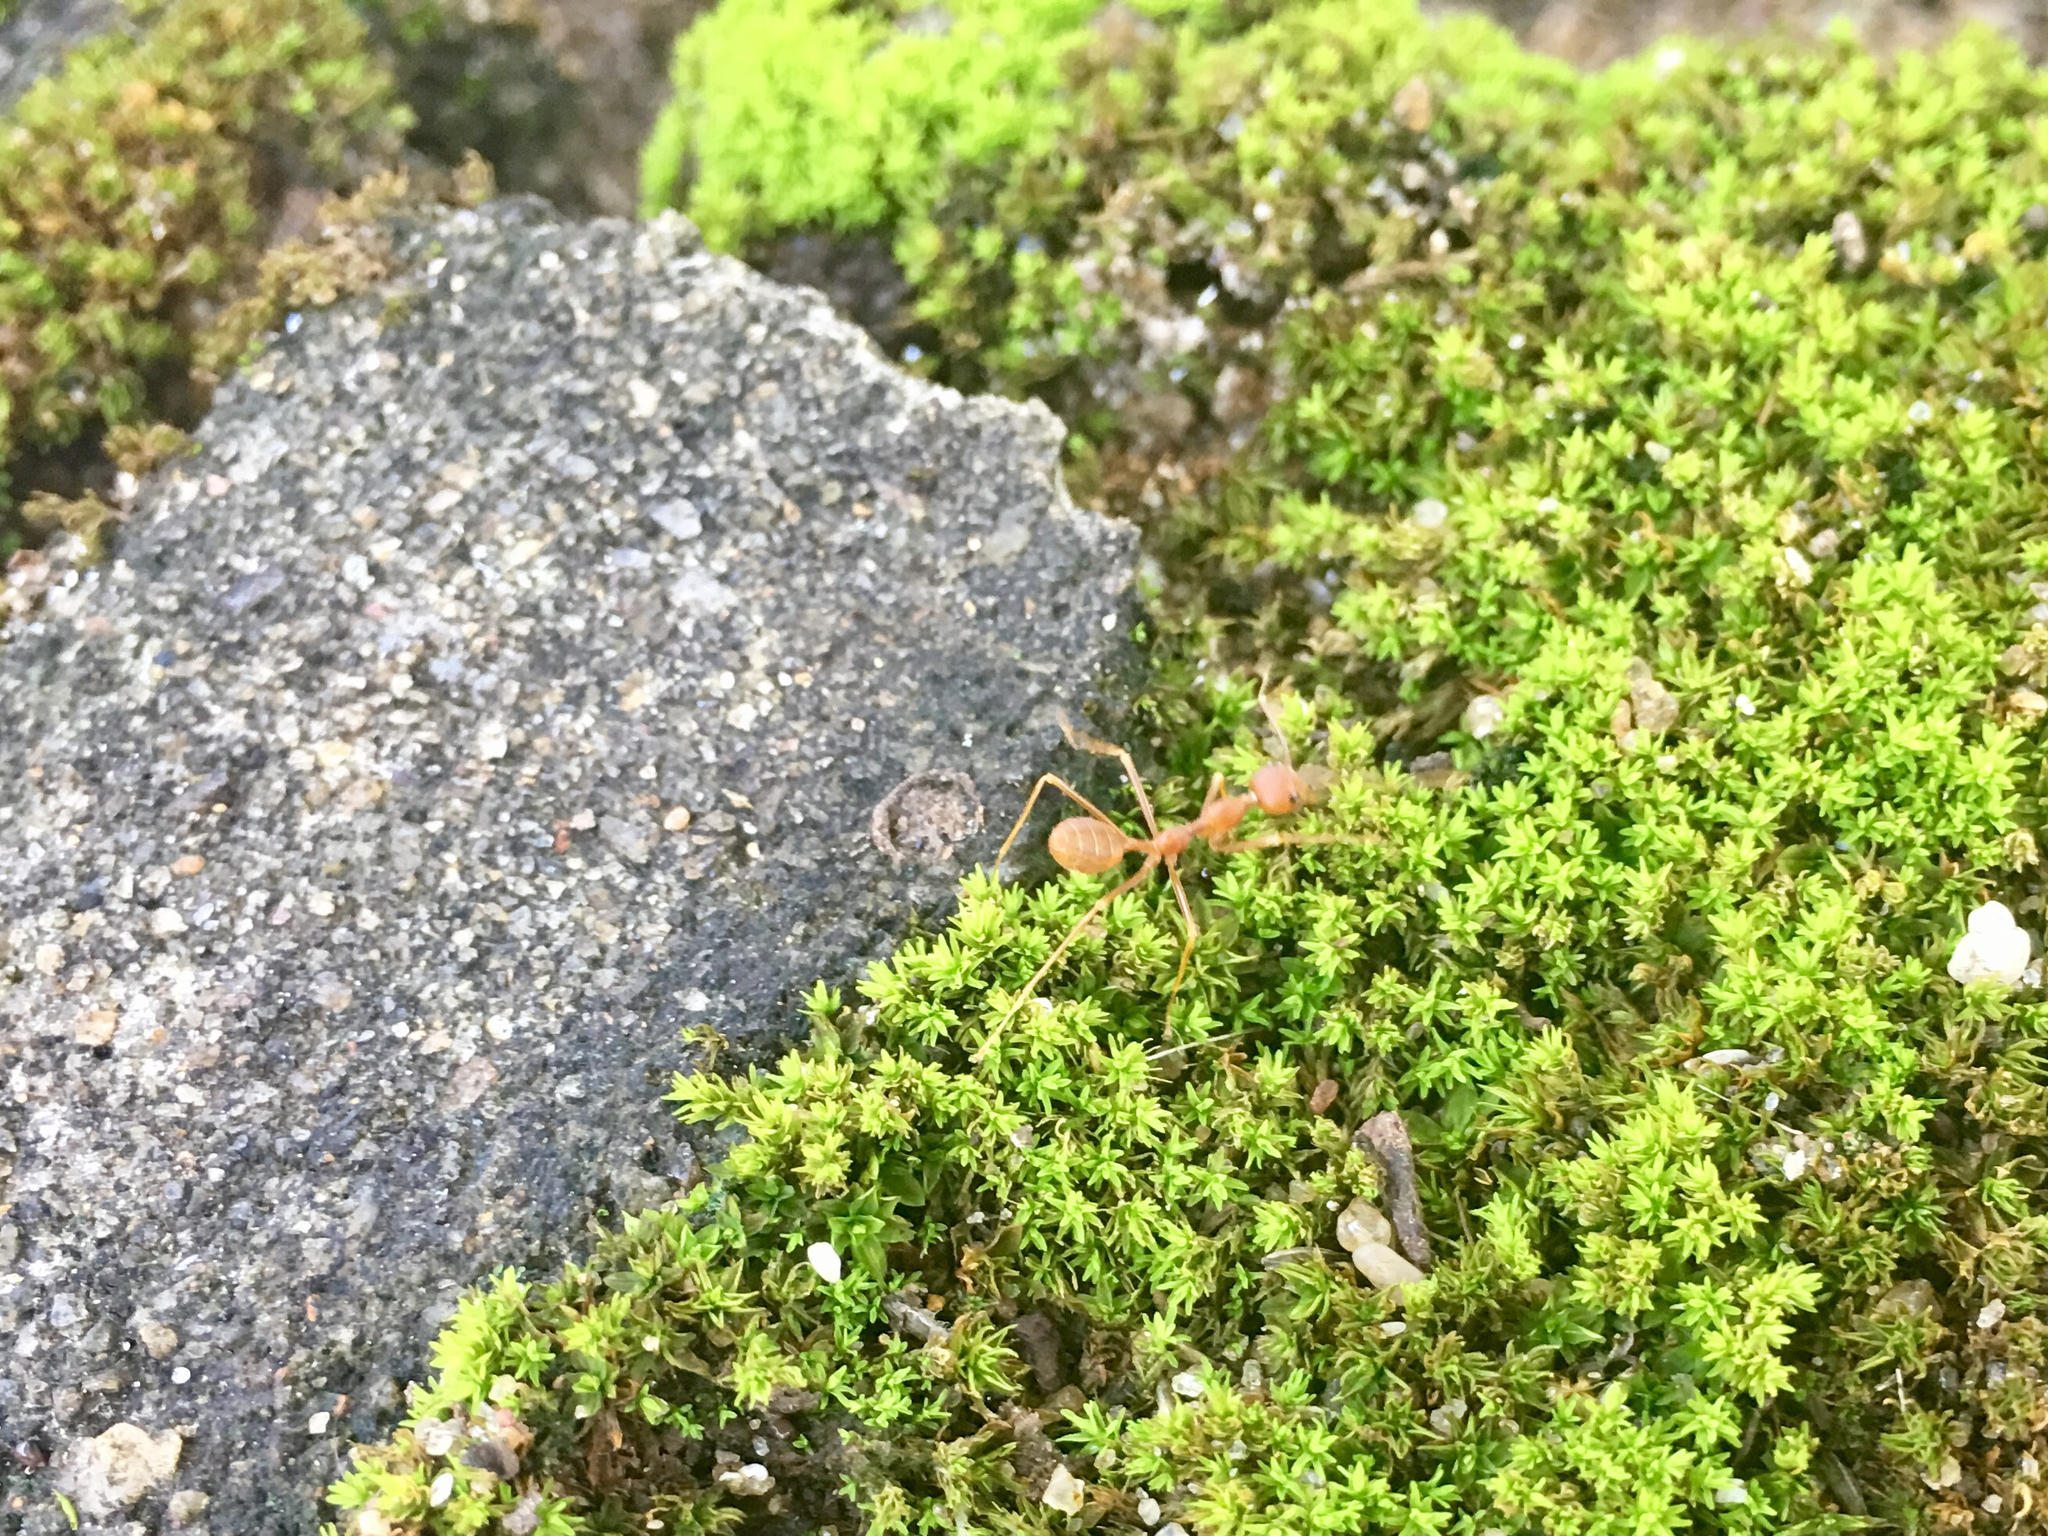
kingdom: Animalia
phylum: Arthropoda
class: Insecta
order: Hymenoptera
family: Formicidae
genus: Oecophylla
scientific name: Oecophylla smaragdina
